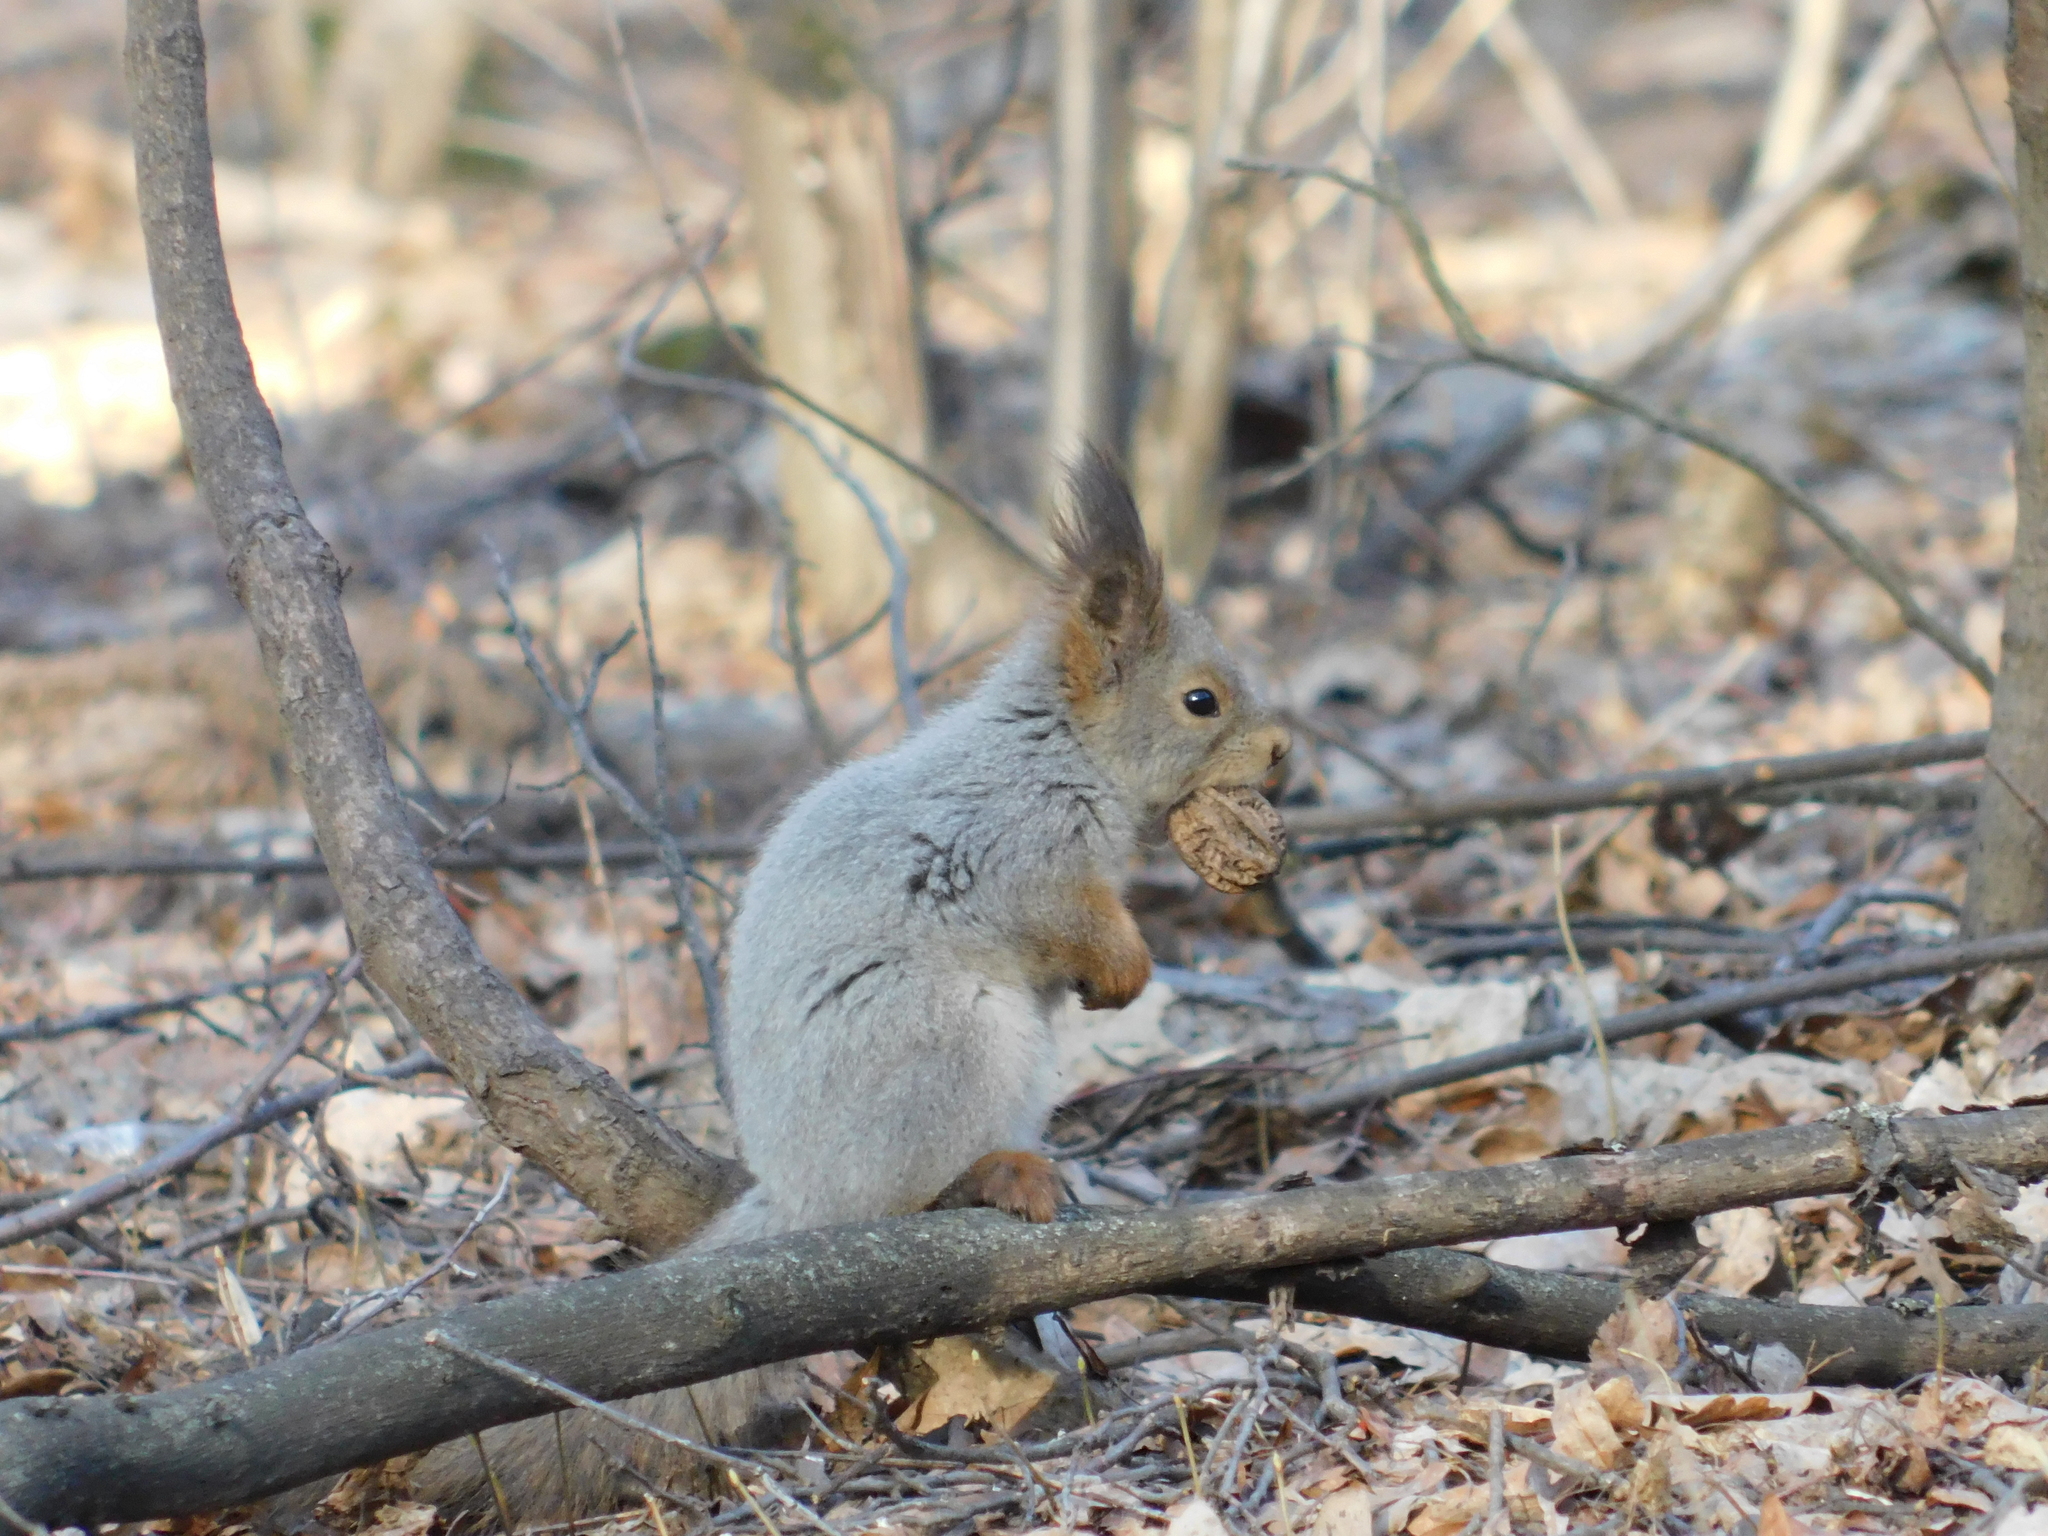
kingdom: Animalia
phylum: Chordata
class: Mammalia
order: Rodentia
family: Sciuridae
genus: Sciurus
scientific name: Sciurus vulgaris
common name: Eurasian red squirrel
